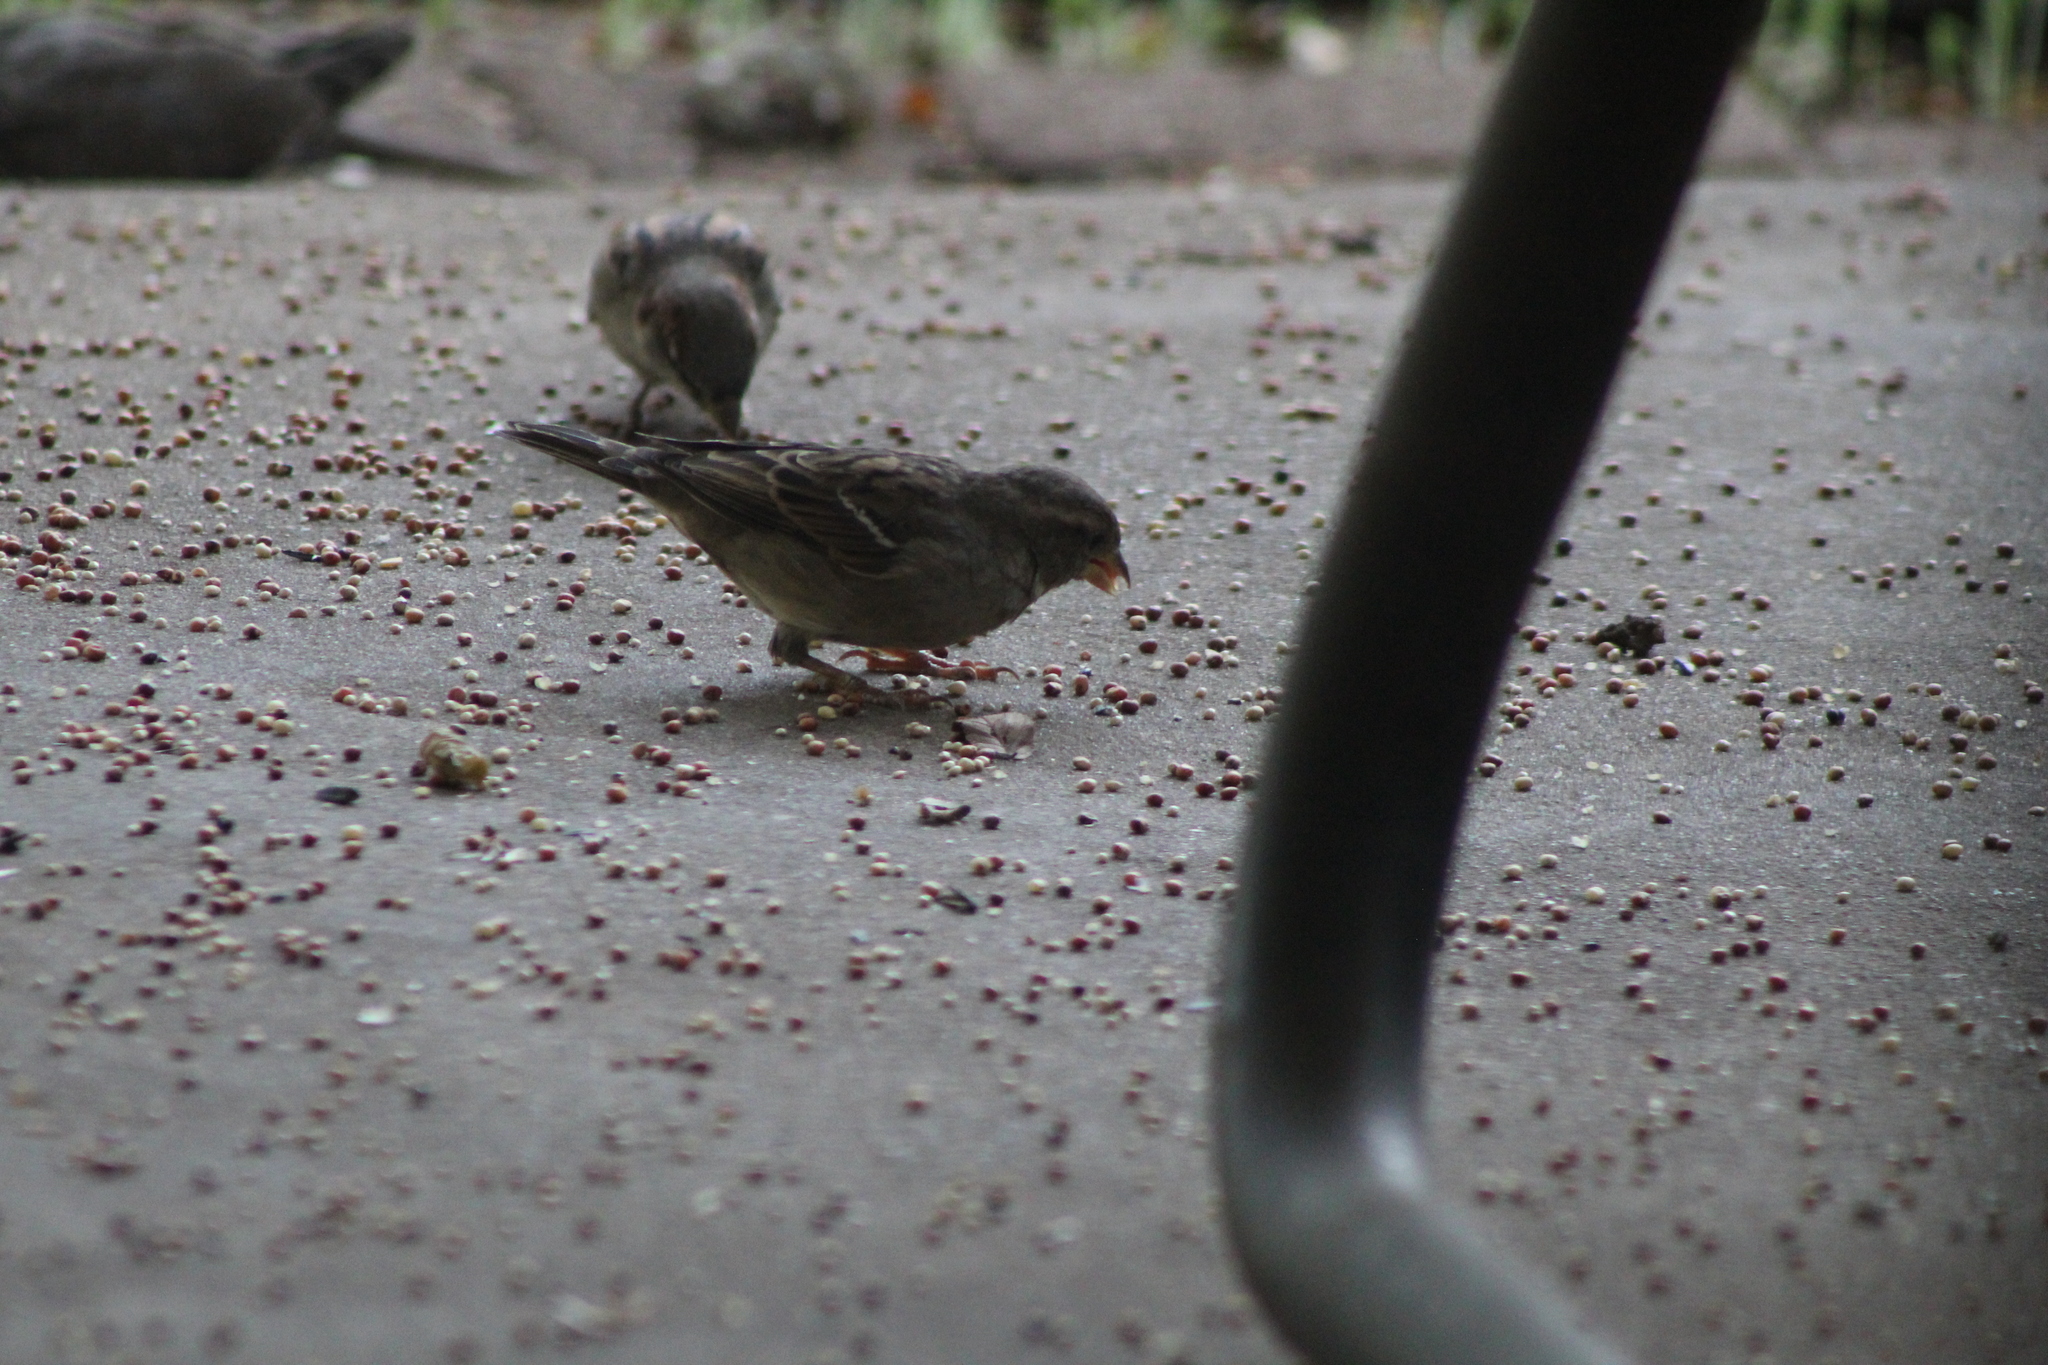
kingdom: Animalia
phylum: Chordata
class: Aves
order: Passeriformes
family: Passeridae
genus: Passer
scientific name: Passer domesticus
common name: House sparrow
